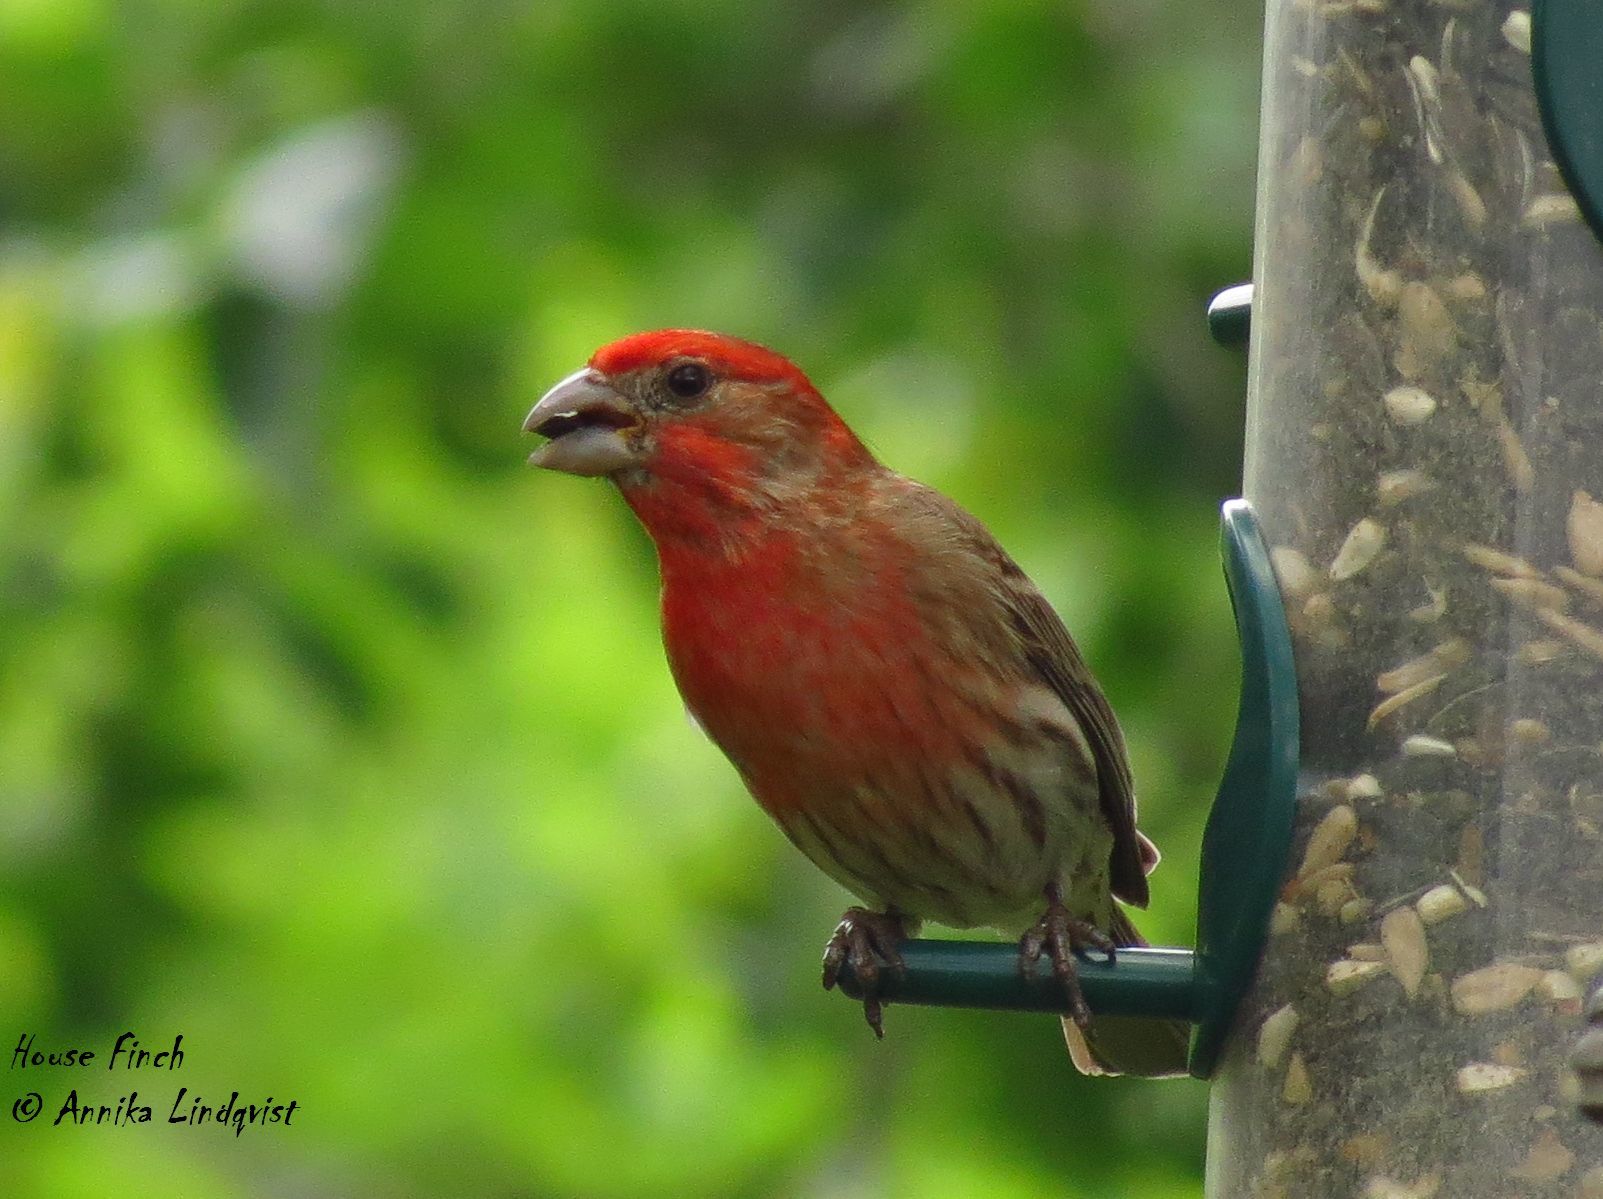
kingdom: Animalia
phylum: Chordata
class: Aves
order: Passeriformes
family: Fringillidae
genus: Haemorhous
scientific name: Haemorhous mexicanus
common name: House finch
